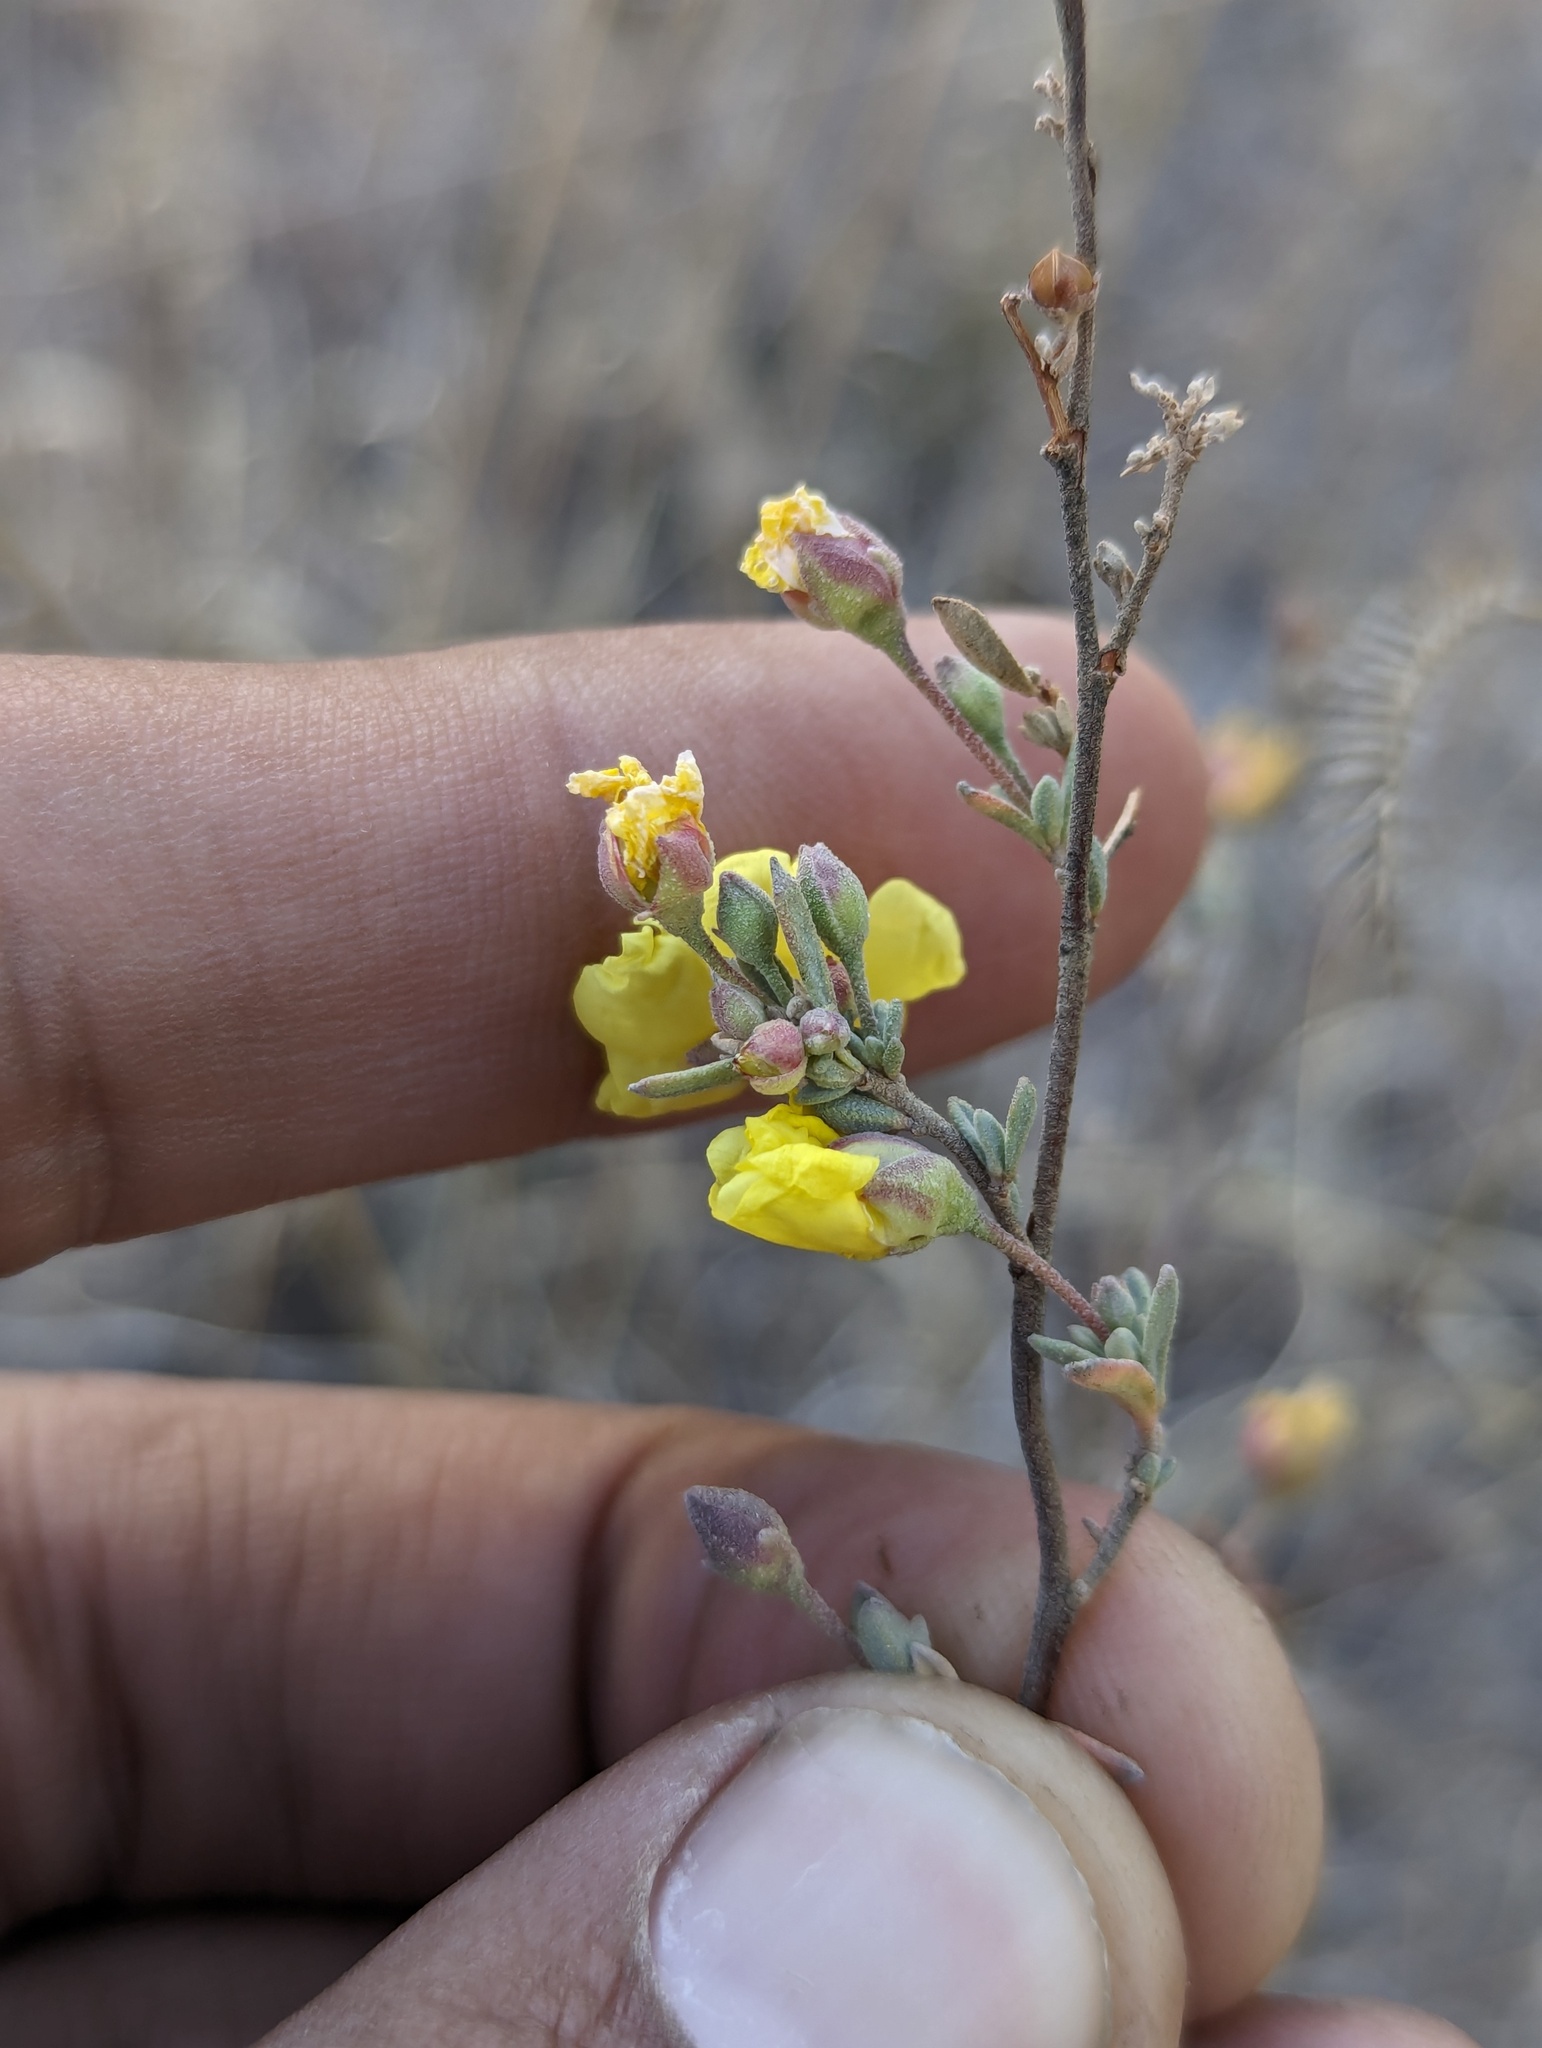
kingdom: Plantae
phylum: Tracheophyta
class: Magnoliopsida
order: Malvales
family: Cistaceae
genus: Crocanthemum
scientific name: Crocanthemum glomeratum
